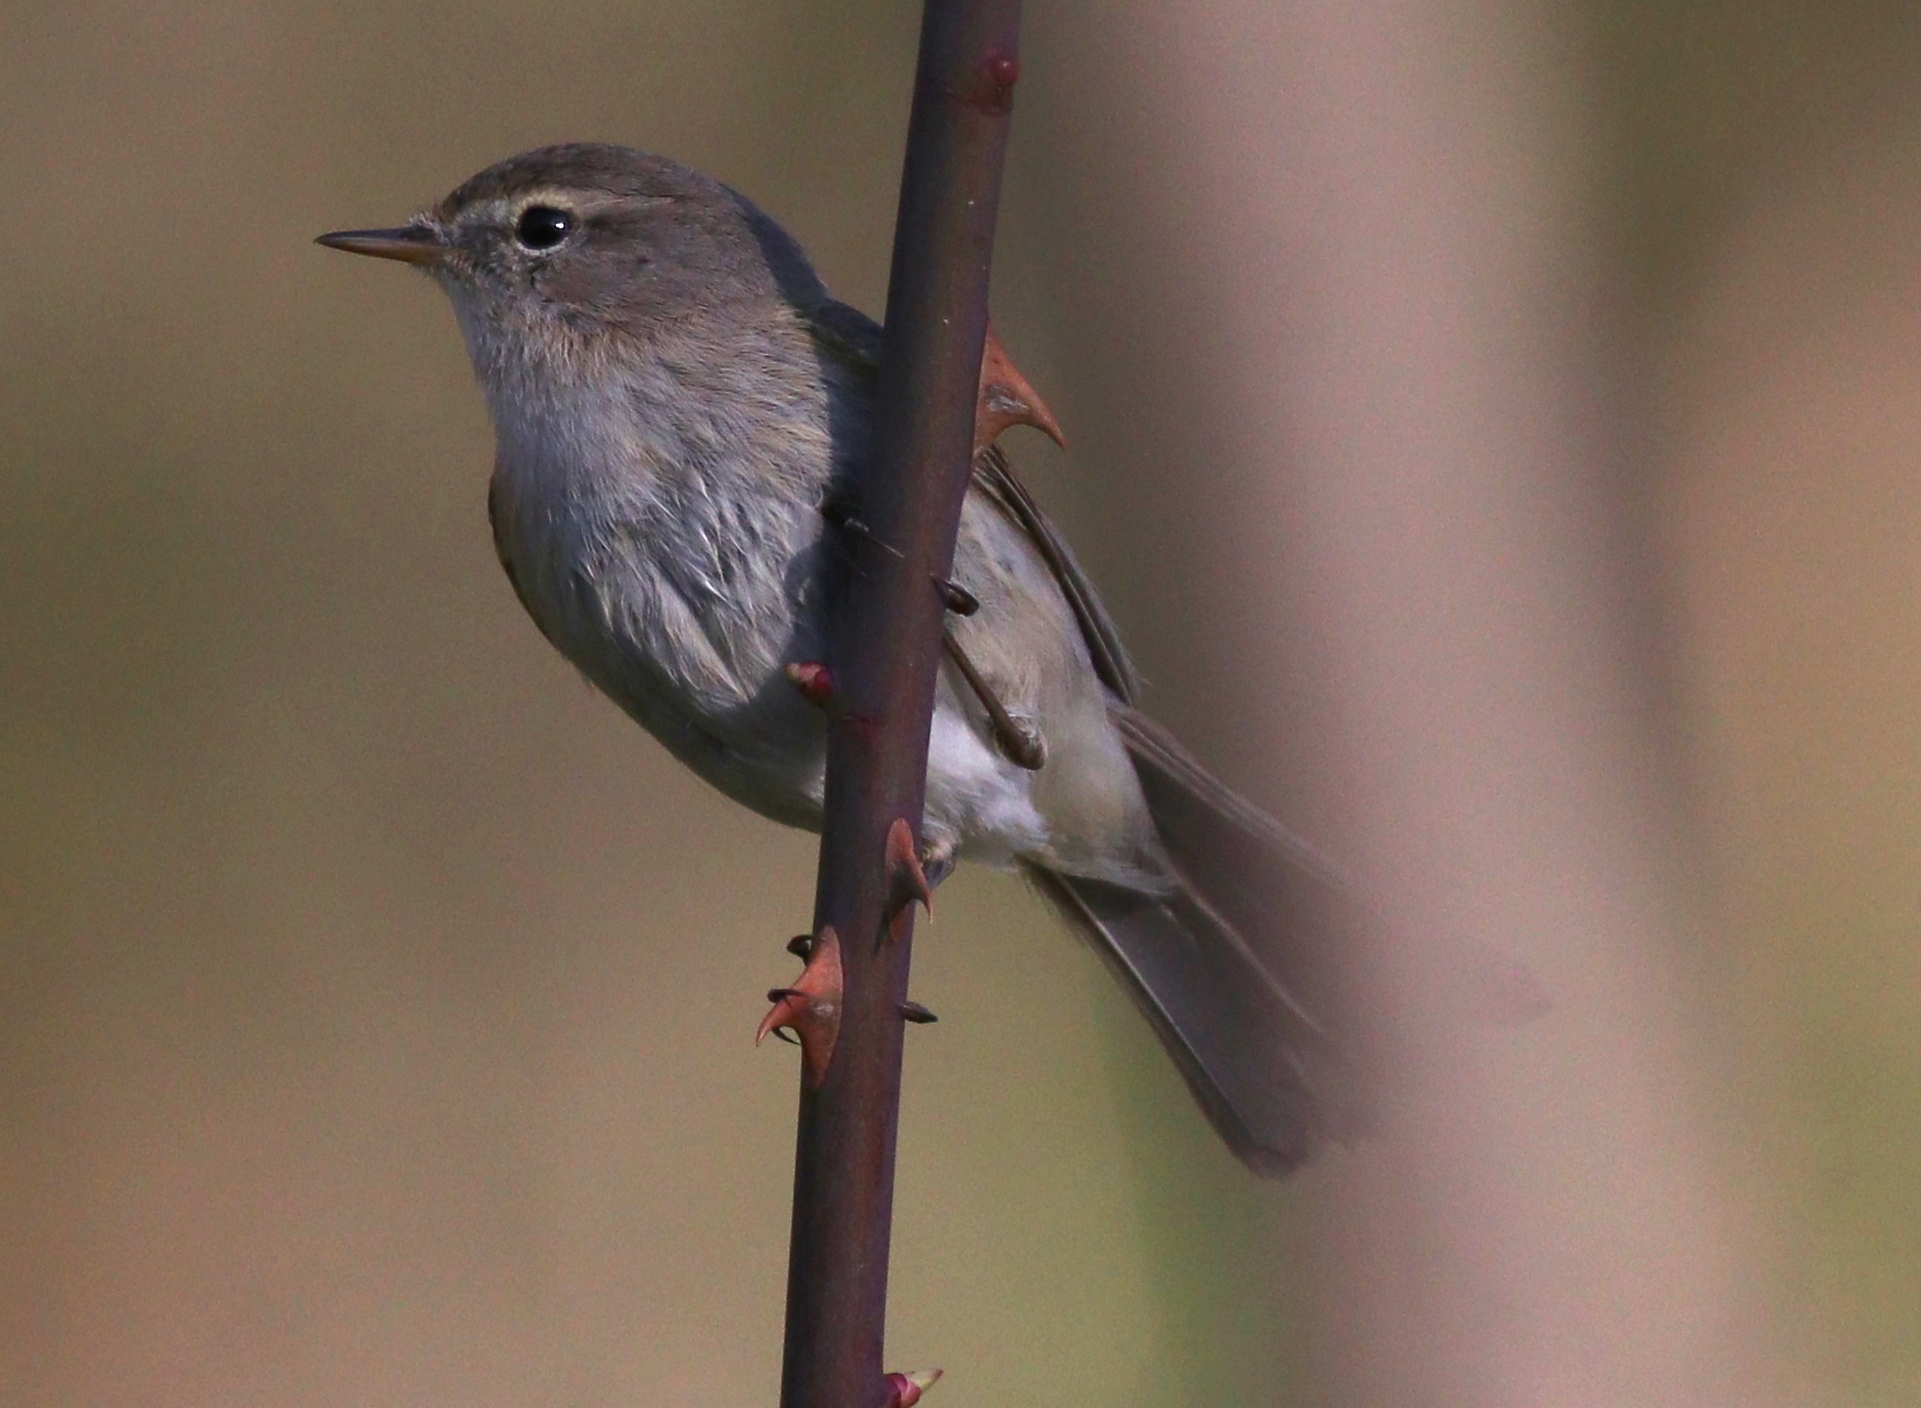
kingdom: Animalia
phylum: Chordata
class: Aves
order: Passeriformes
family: Phylloscopidae
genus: Phylloscopus
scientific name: Phylloscopus sindianus
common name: Mountain chiffchaff
